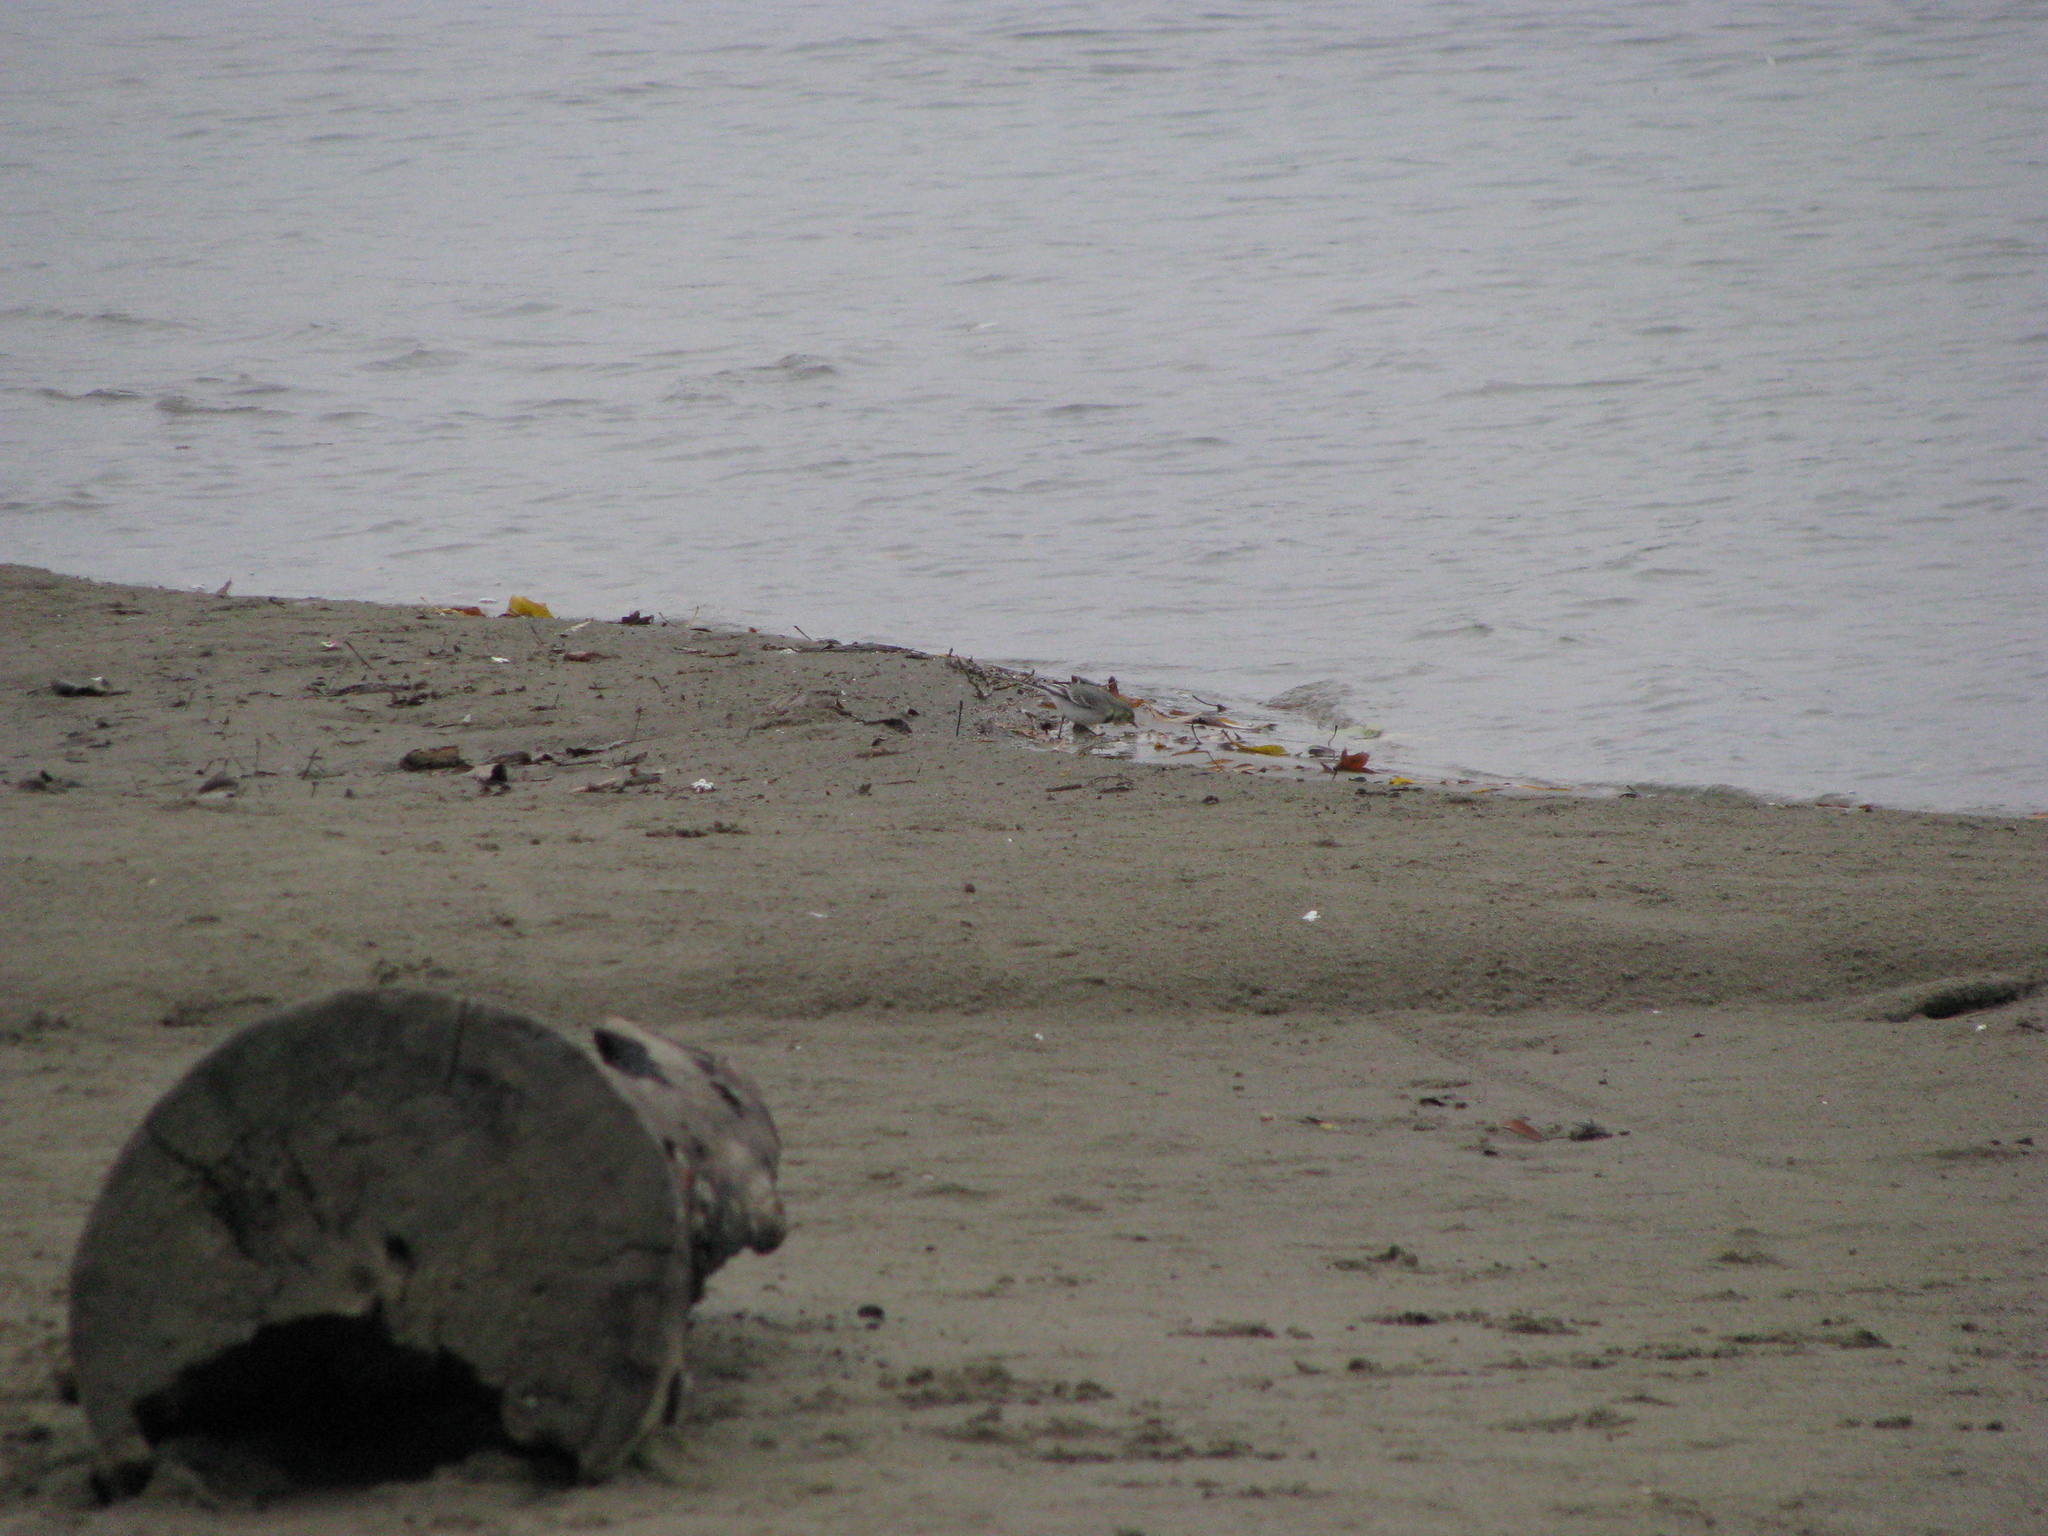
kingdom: Animalia
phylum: Chordata
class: Aves
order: Passeriformes
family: Motacillidae
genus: Motacilla
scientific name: Motacilla alba
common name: White wagtail
